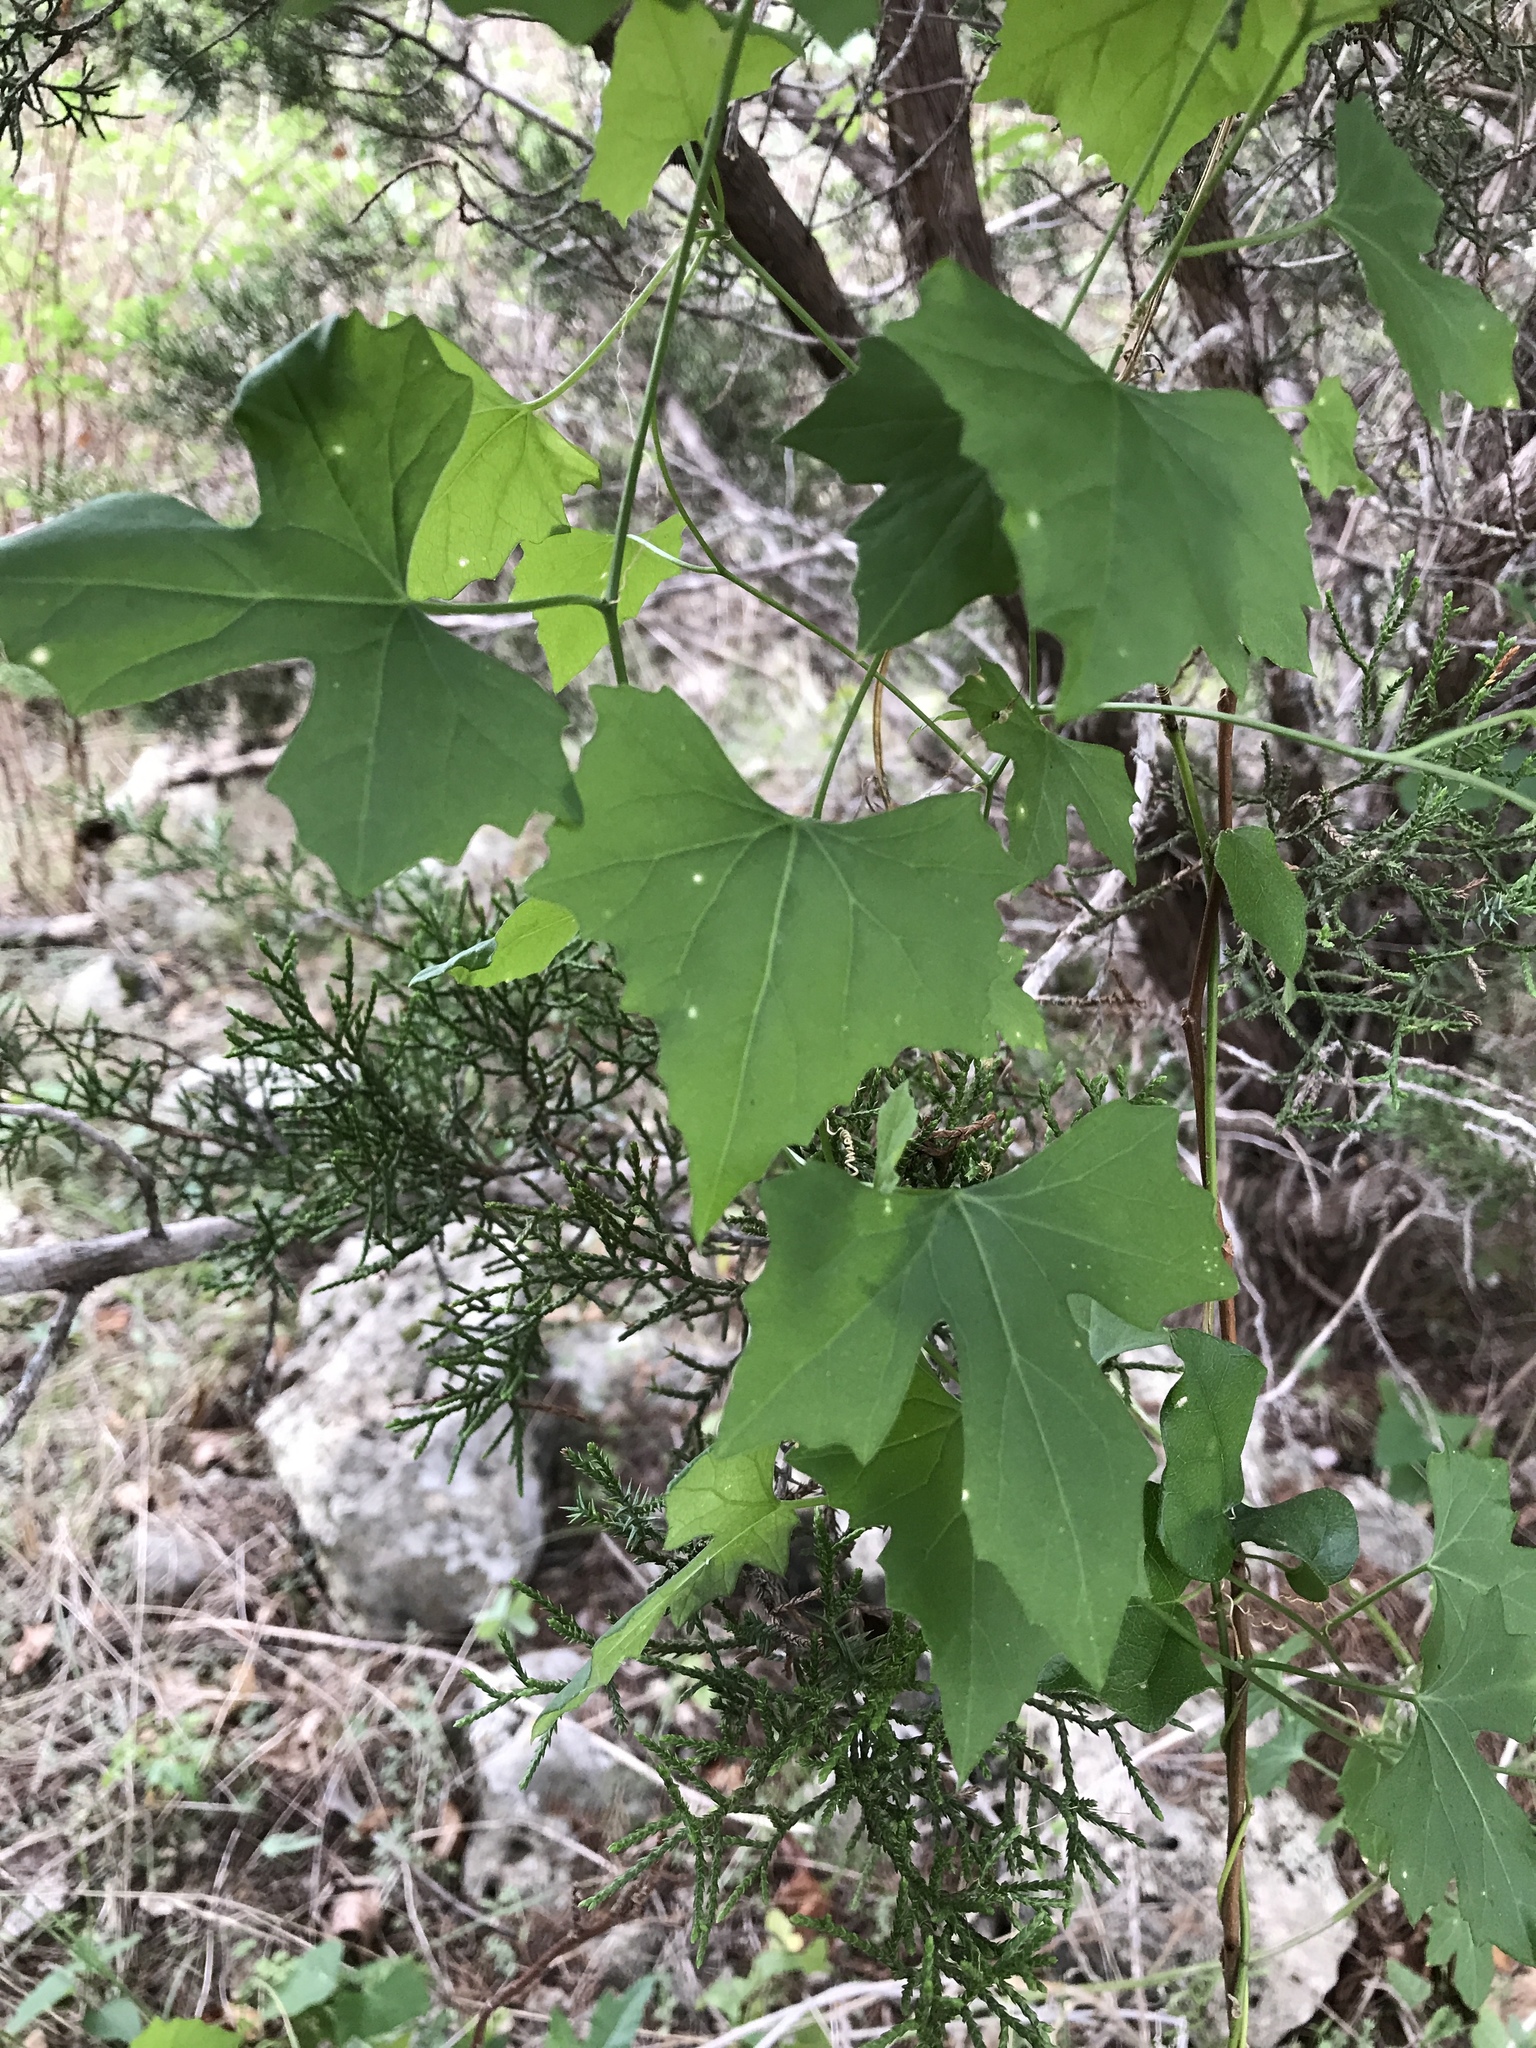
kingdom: Plantae
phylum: Tracheophyta
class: Magnoliopsida
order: Cucurbitales
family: Cucurbitaceae
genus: Ibervillea
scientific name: Ibervillea lindheimeri
